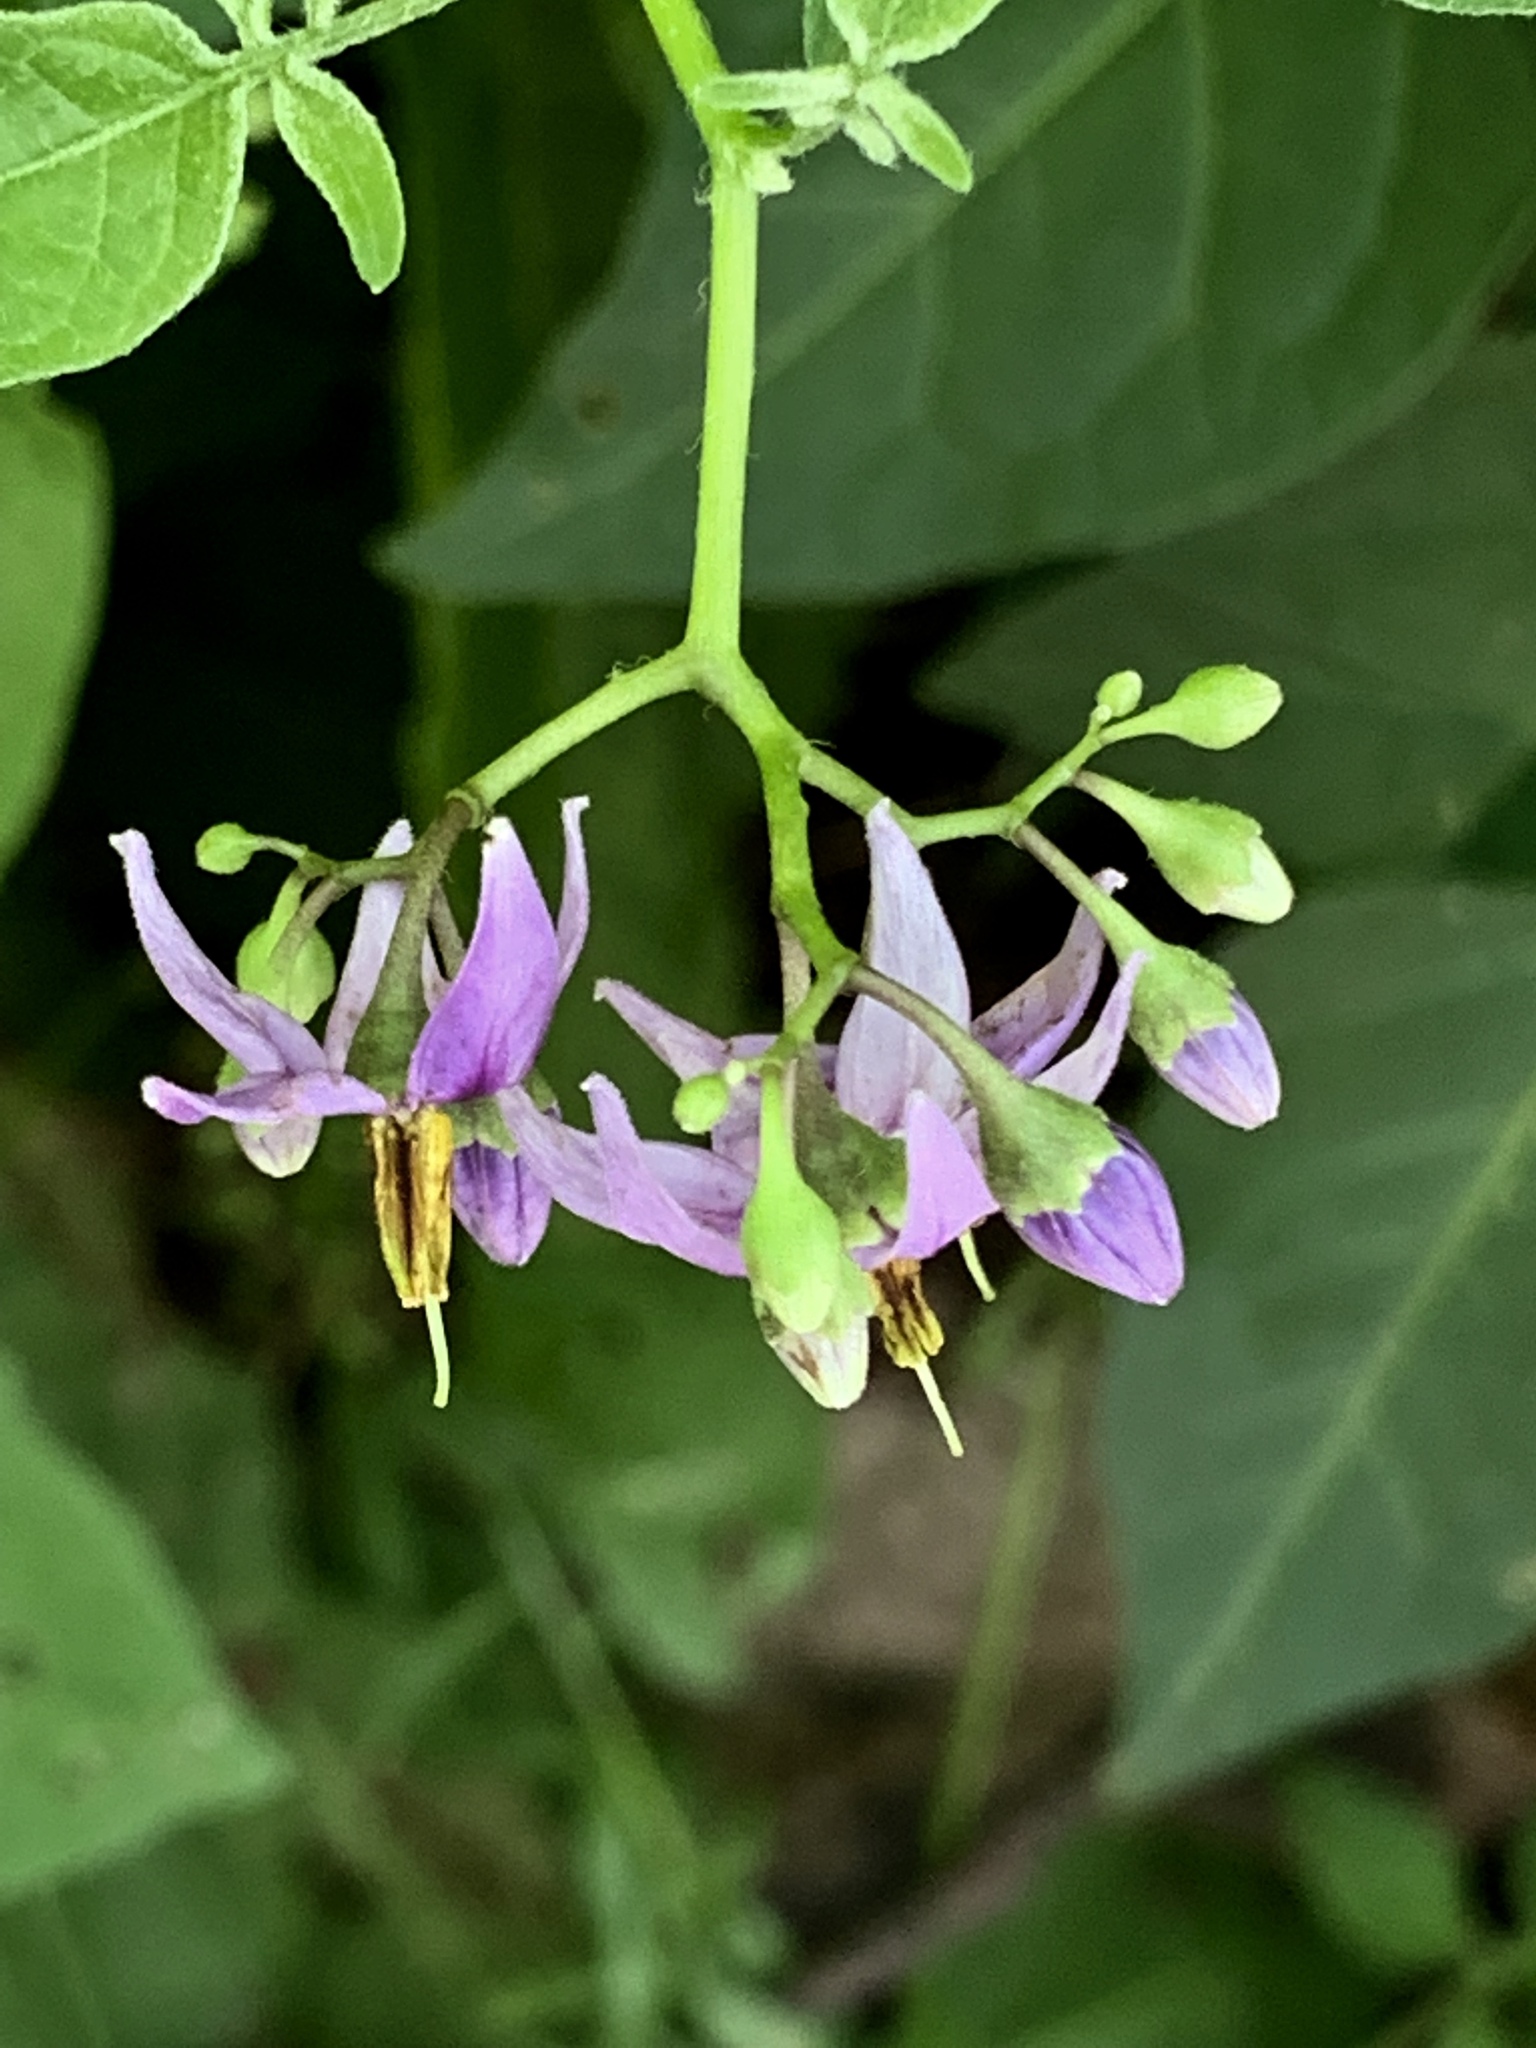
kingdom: Plantae
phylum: Tracheophyta
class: Magnoliopsida
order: Solanales
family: Solanaceae
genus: Solanum
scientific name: Solanum dulcamara
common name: Climbing nightshade
